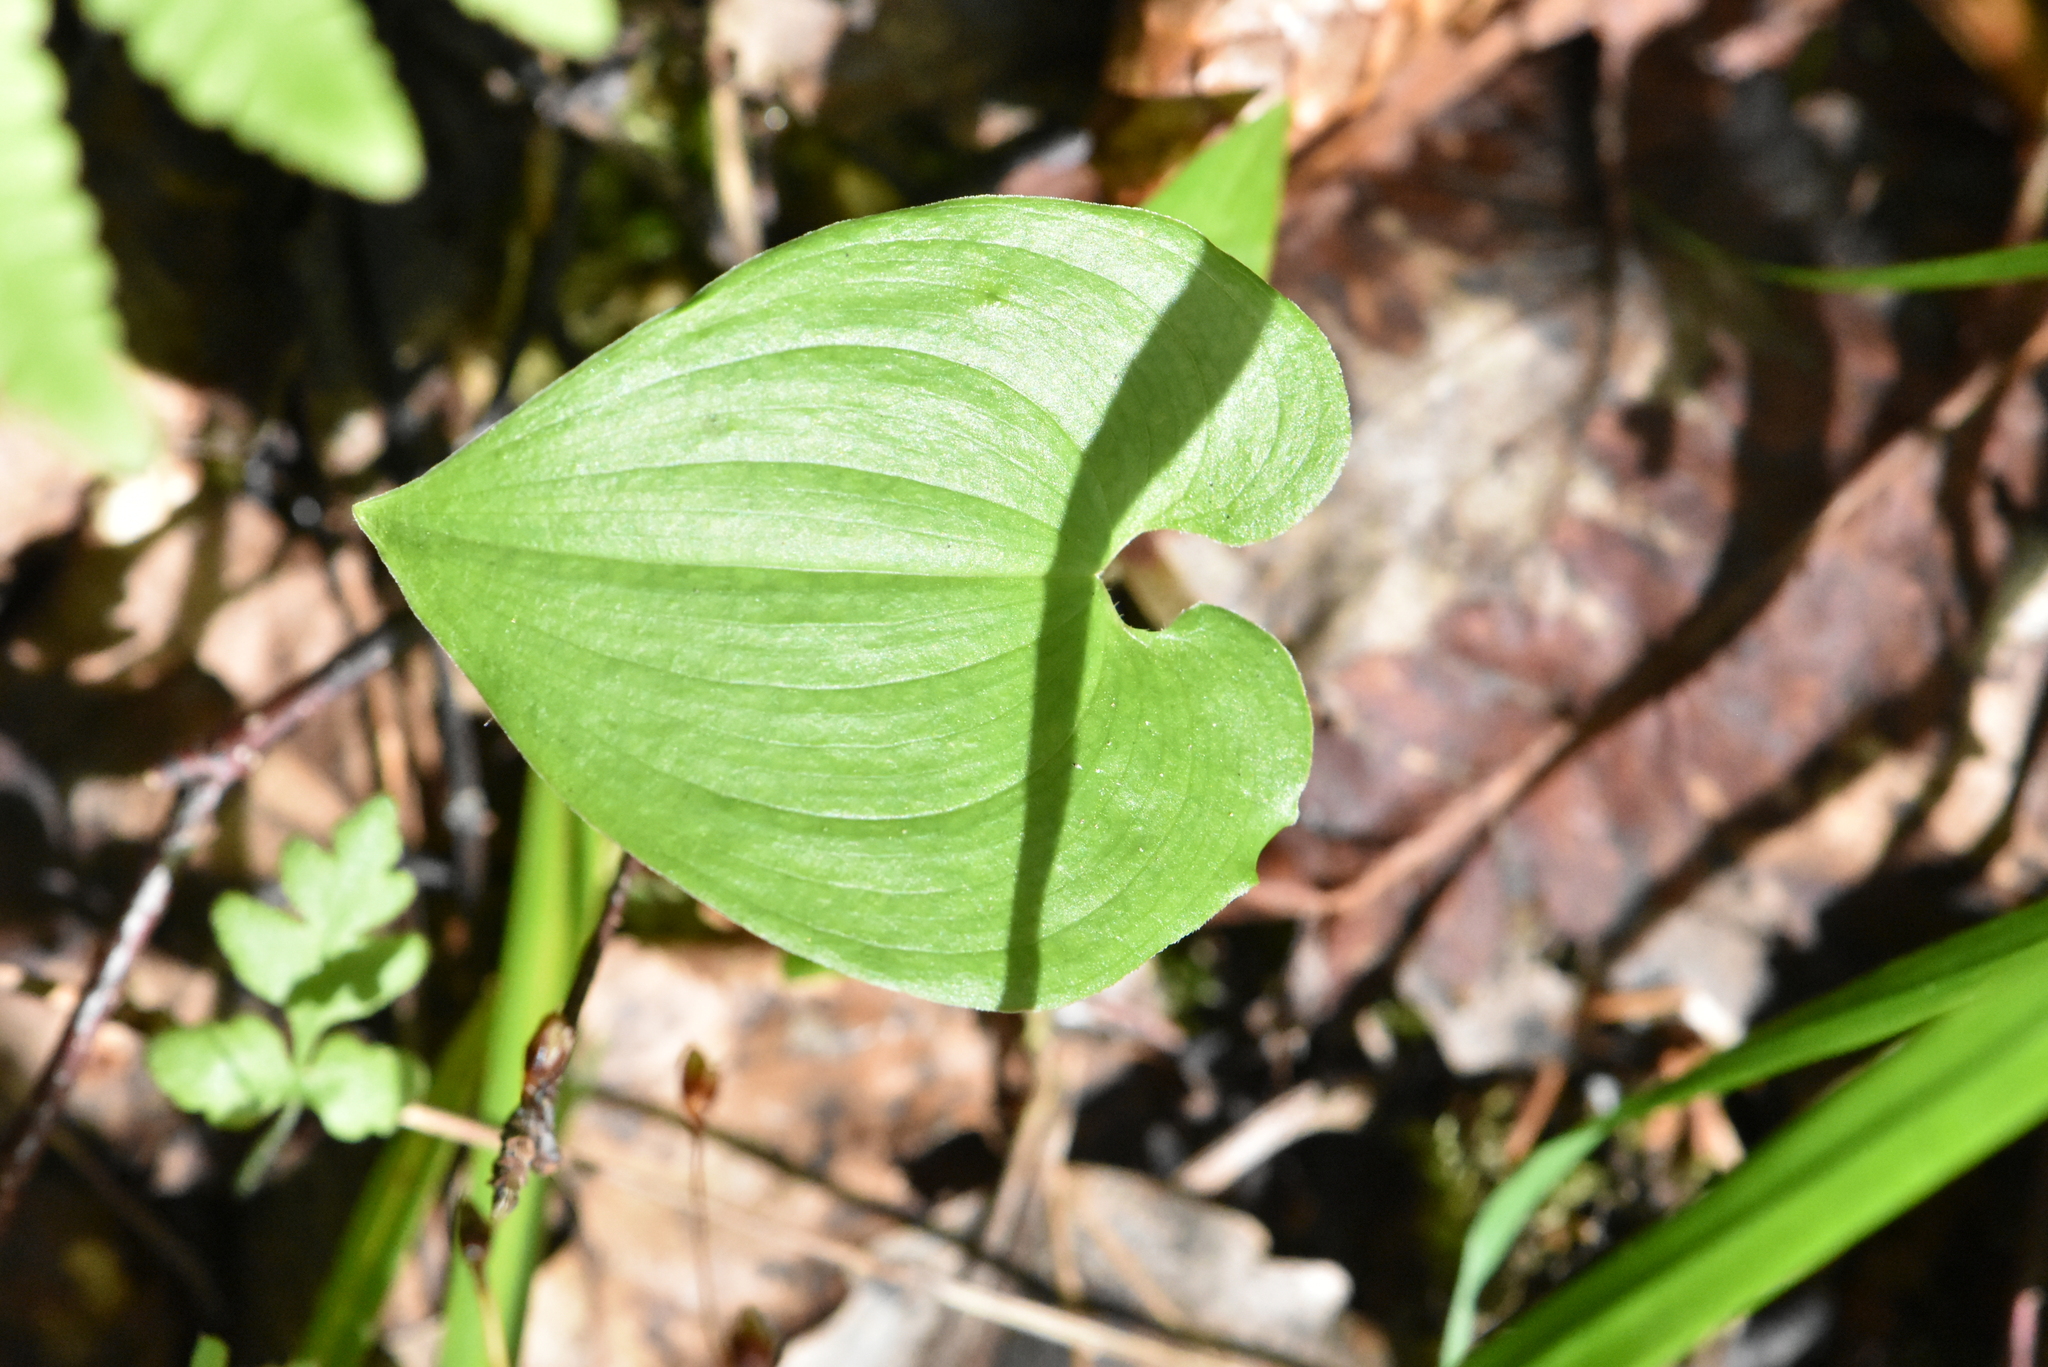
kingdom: Plantae
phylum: Tracheophyta
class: Liliopsida
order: Asparagales
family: Asparagaceae
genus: Maianthemum
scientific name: Maianthemum bifolium
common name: May lily
